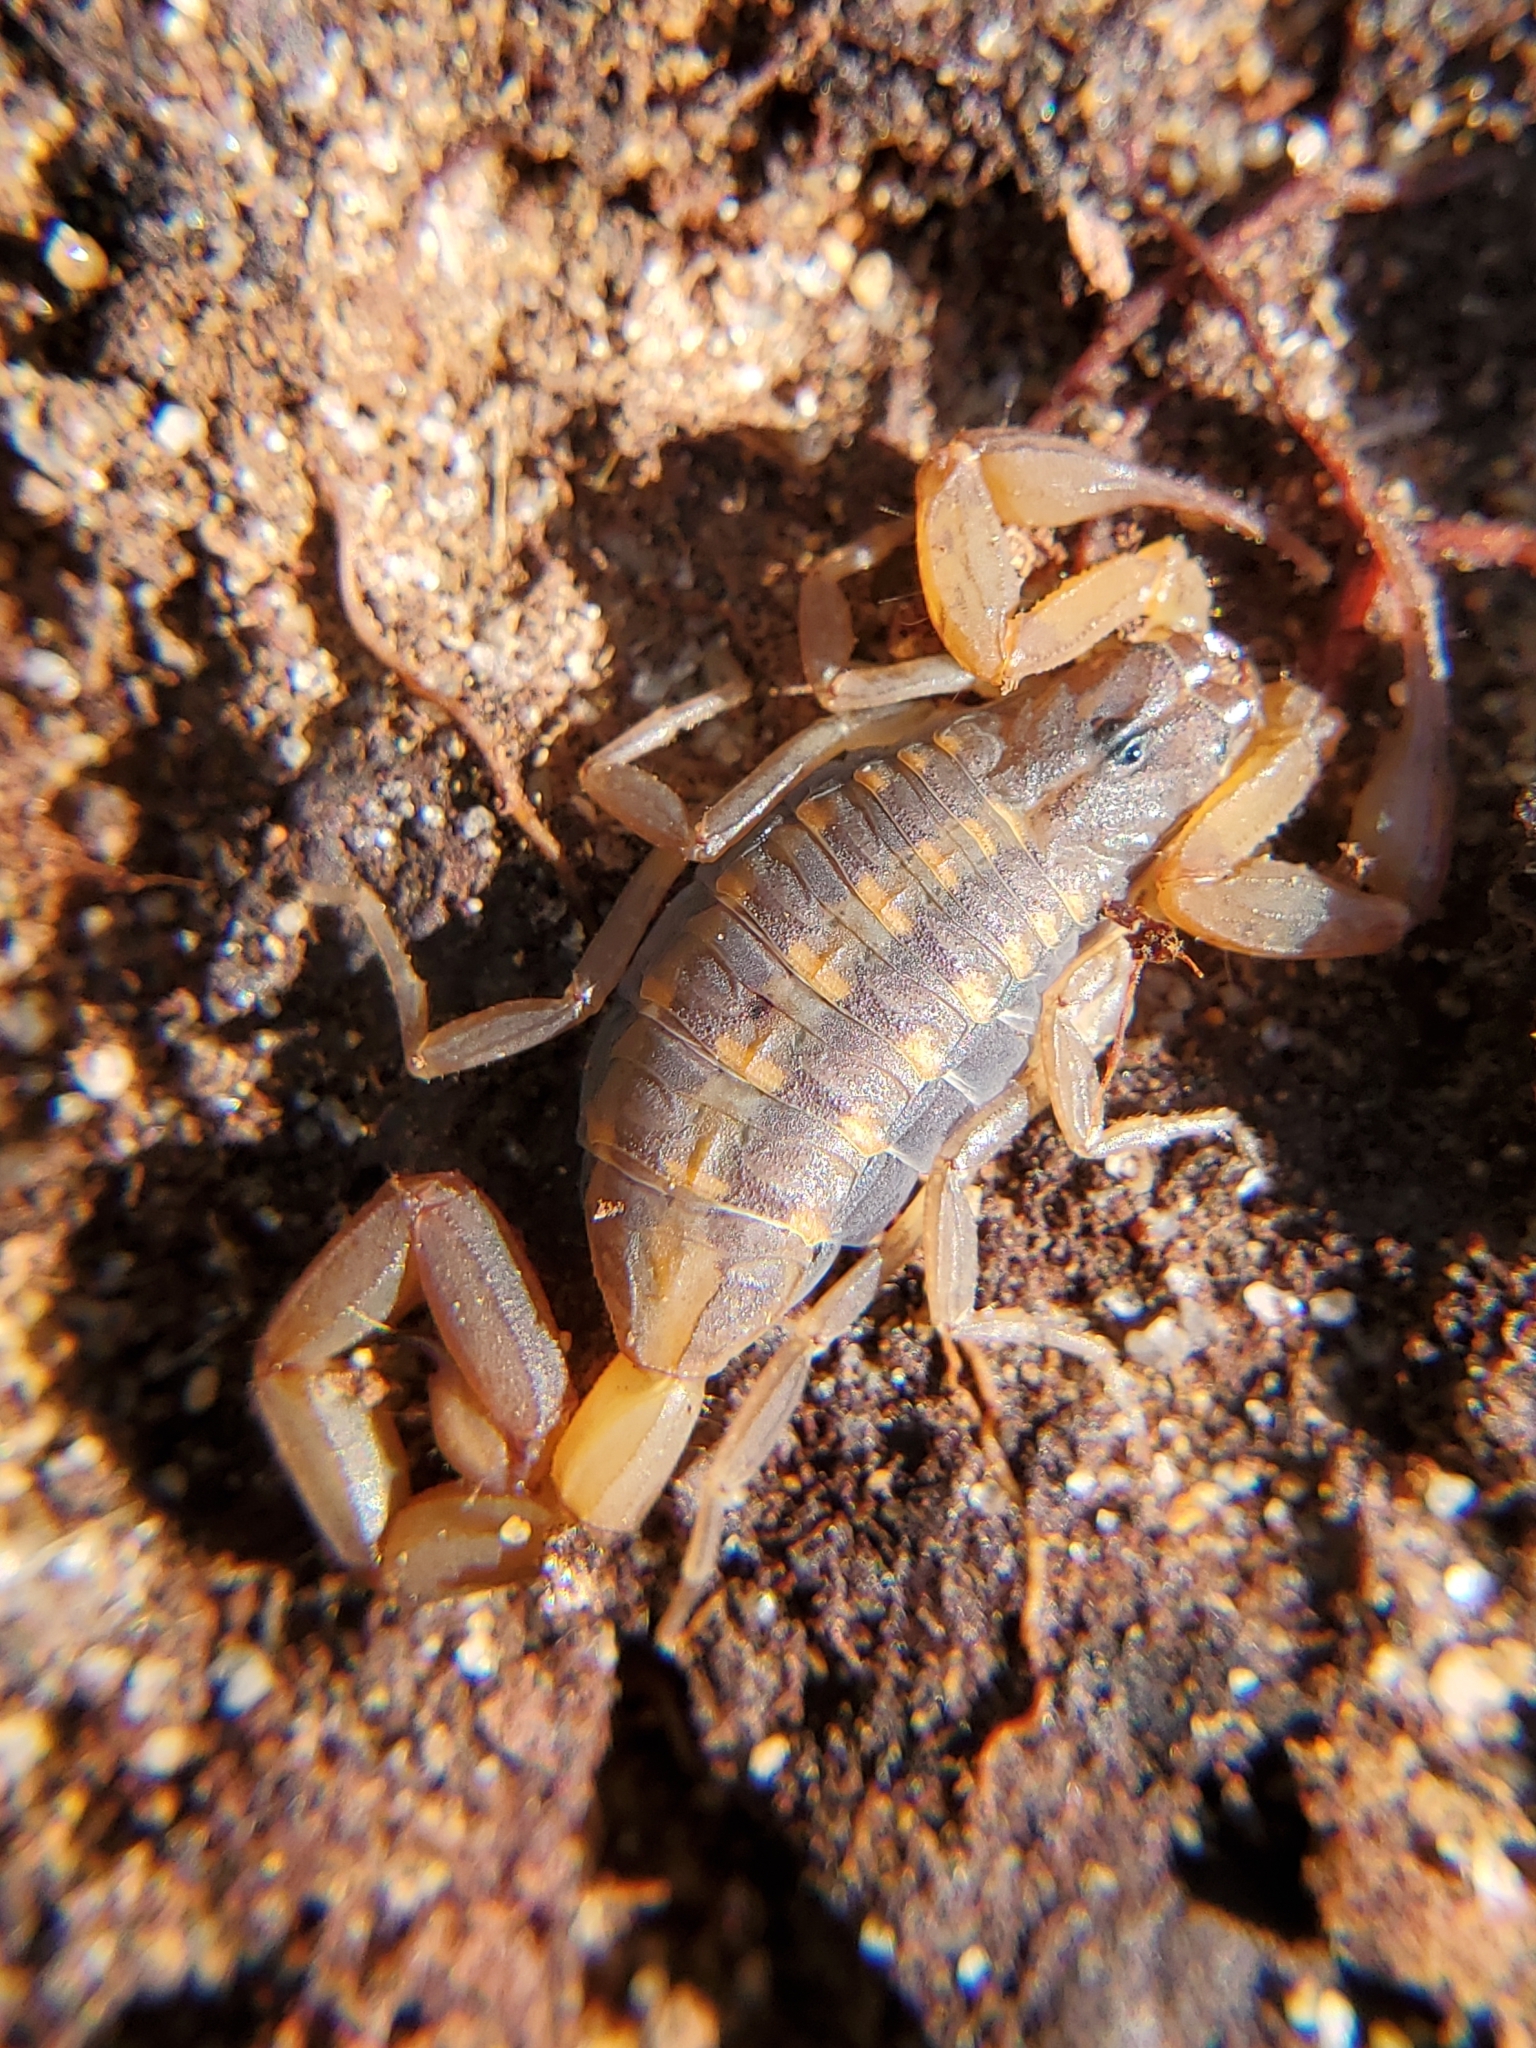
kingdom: Animalia
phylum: Arthropoda
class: Arachnida
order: Scorpiones
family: Buthidae
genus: Centruroides
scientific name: Centruroides hentzi
